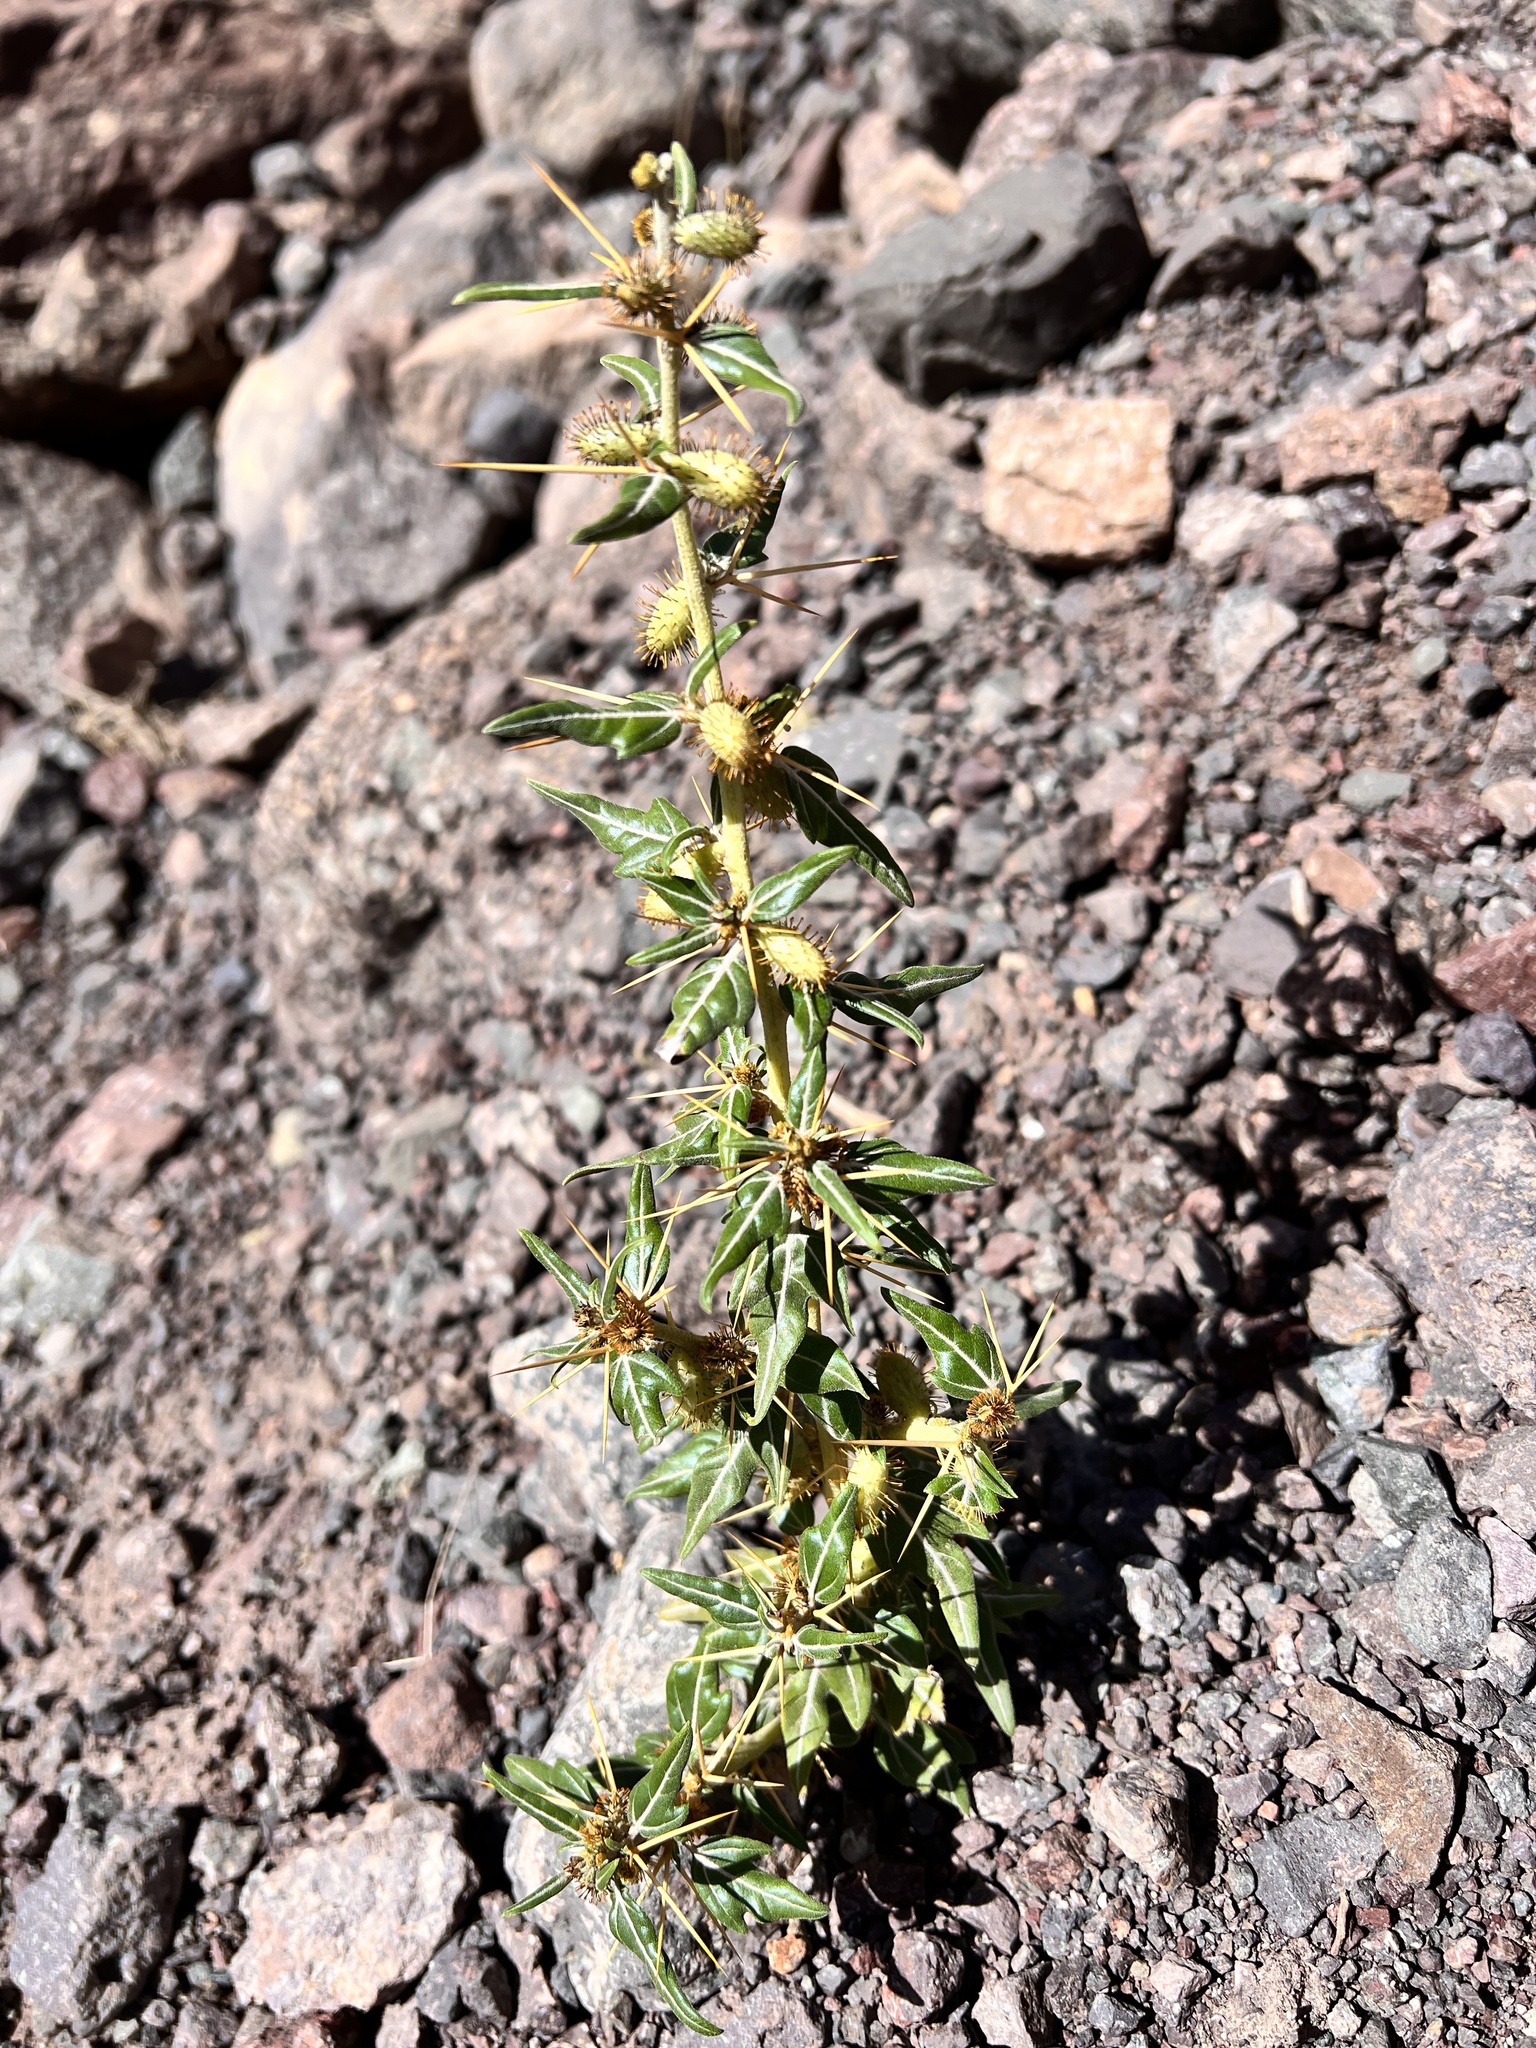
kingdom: Plantae
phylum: Tracheophyta
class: Magnoliopsida
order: Asterales
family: Asteraceae
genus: Xanthium
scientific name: Xanthium spinosum
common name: Spiny cocklebur
